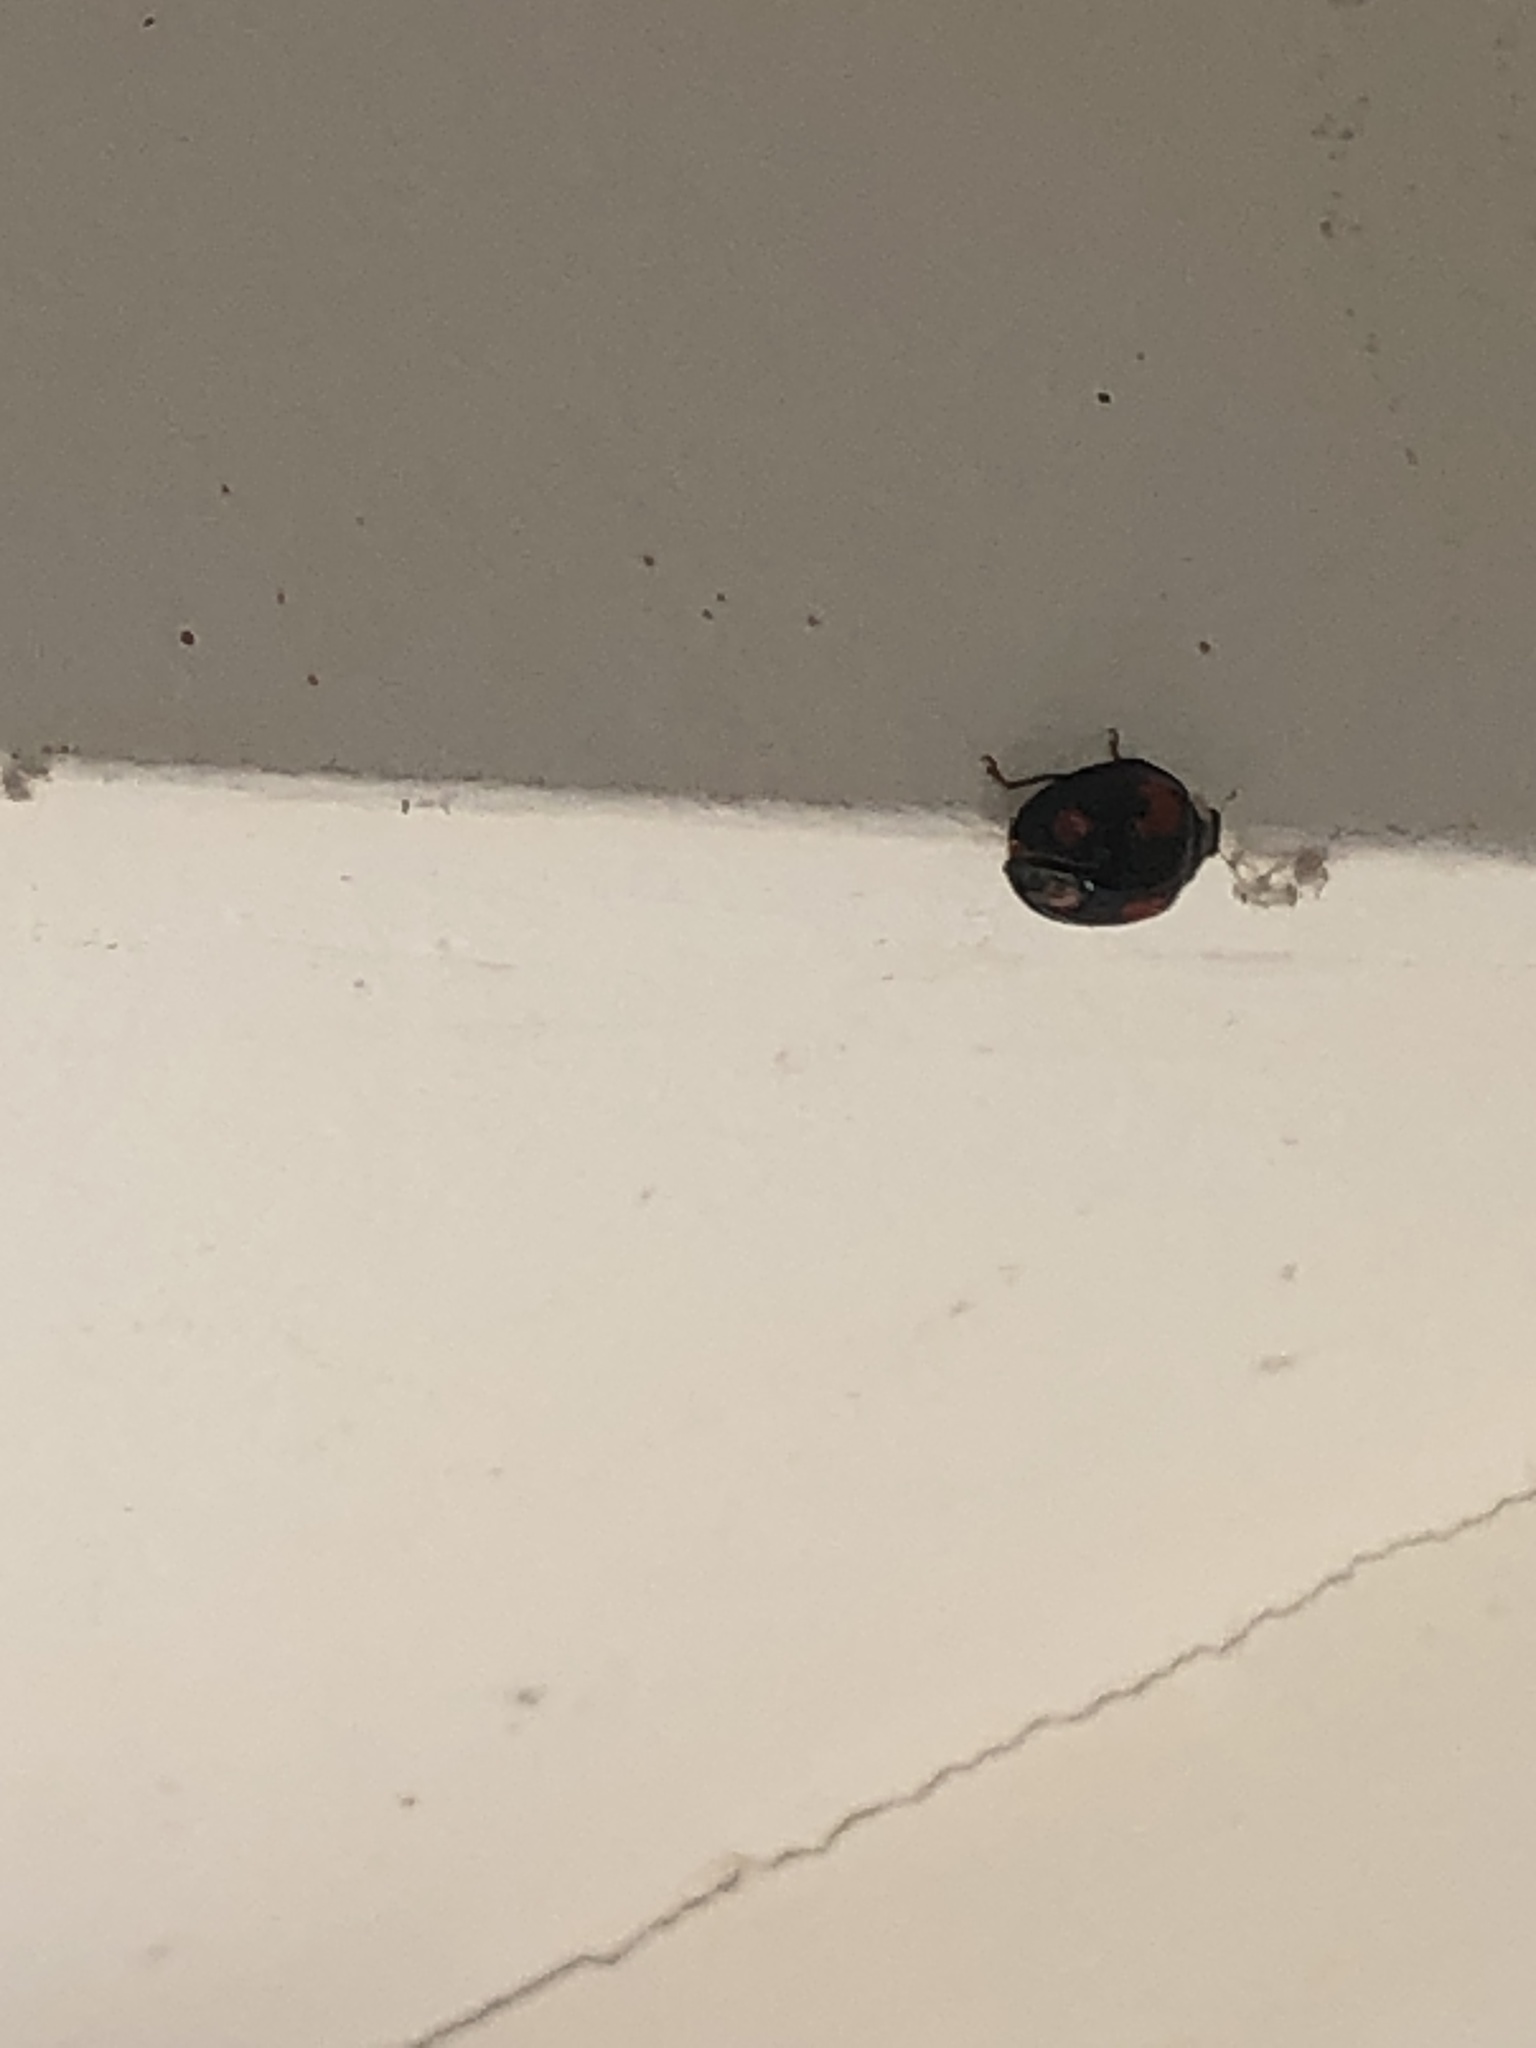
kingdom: Animalia
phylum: Arthropoda
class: Insecta
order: Coleoptera
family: Coccinellidae
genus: Harmonia
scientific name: Harmonia axyridis
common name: Harlequin ladybird
